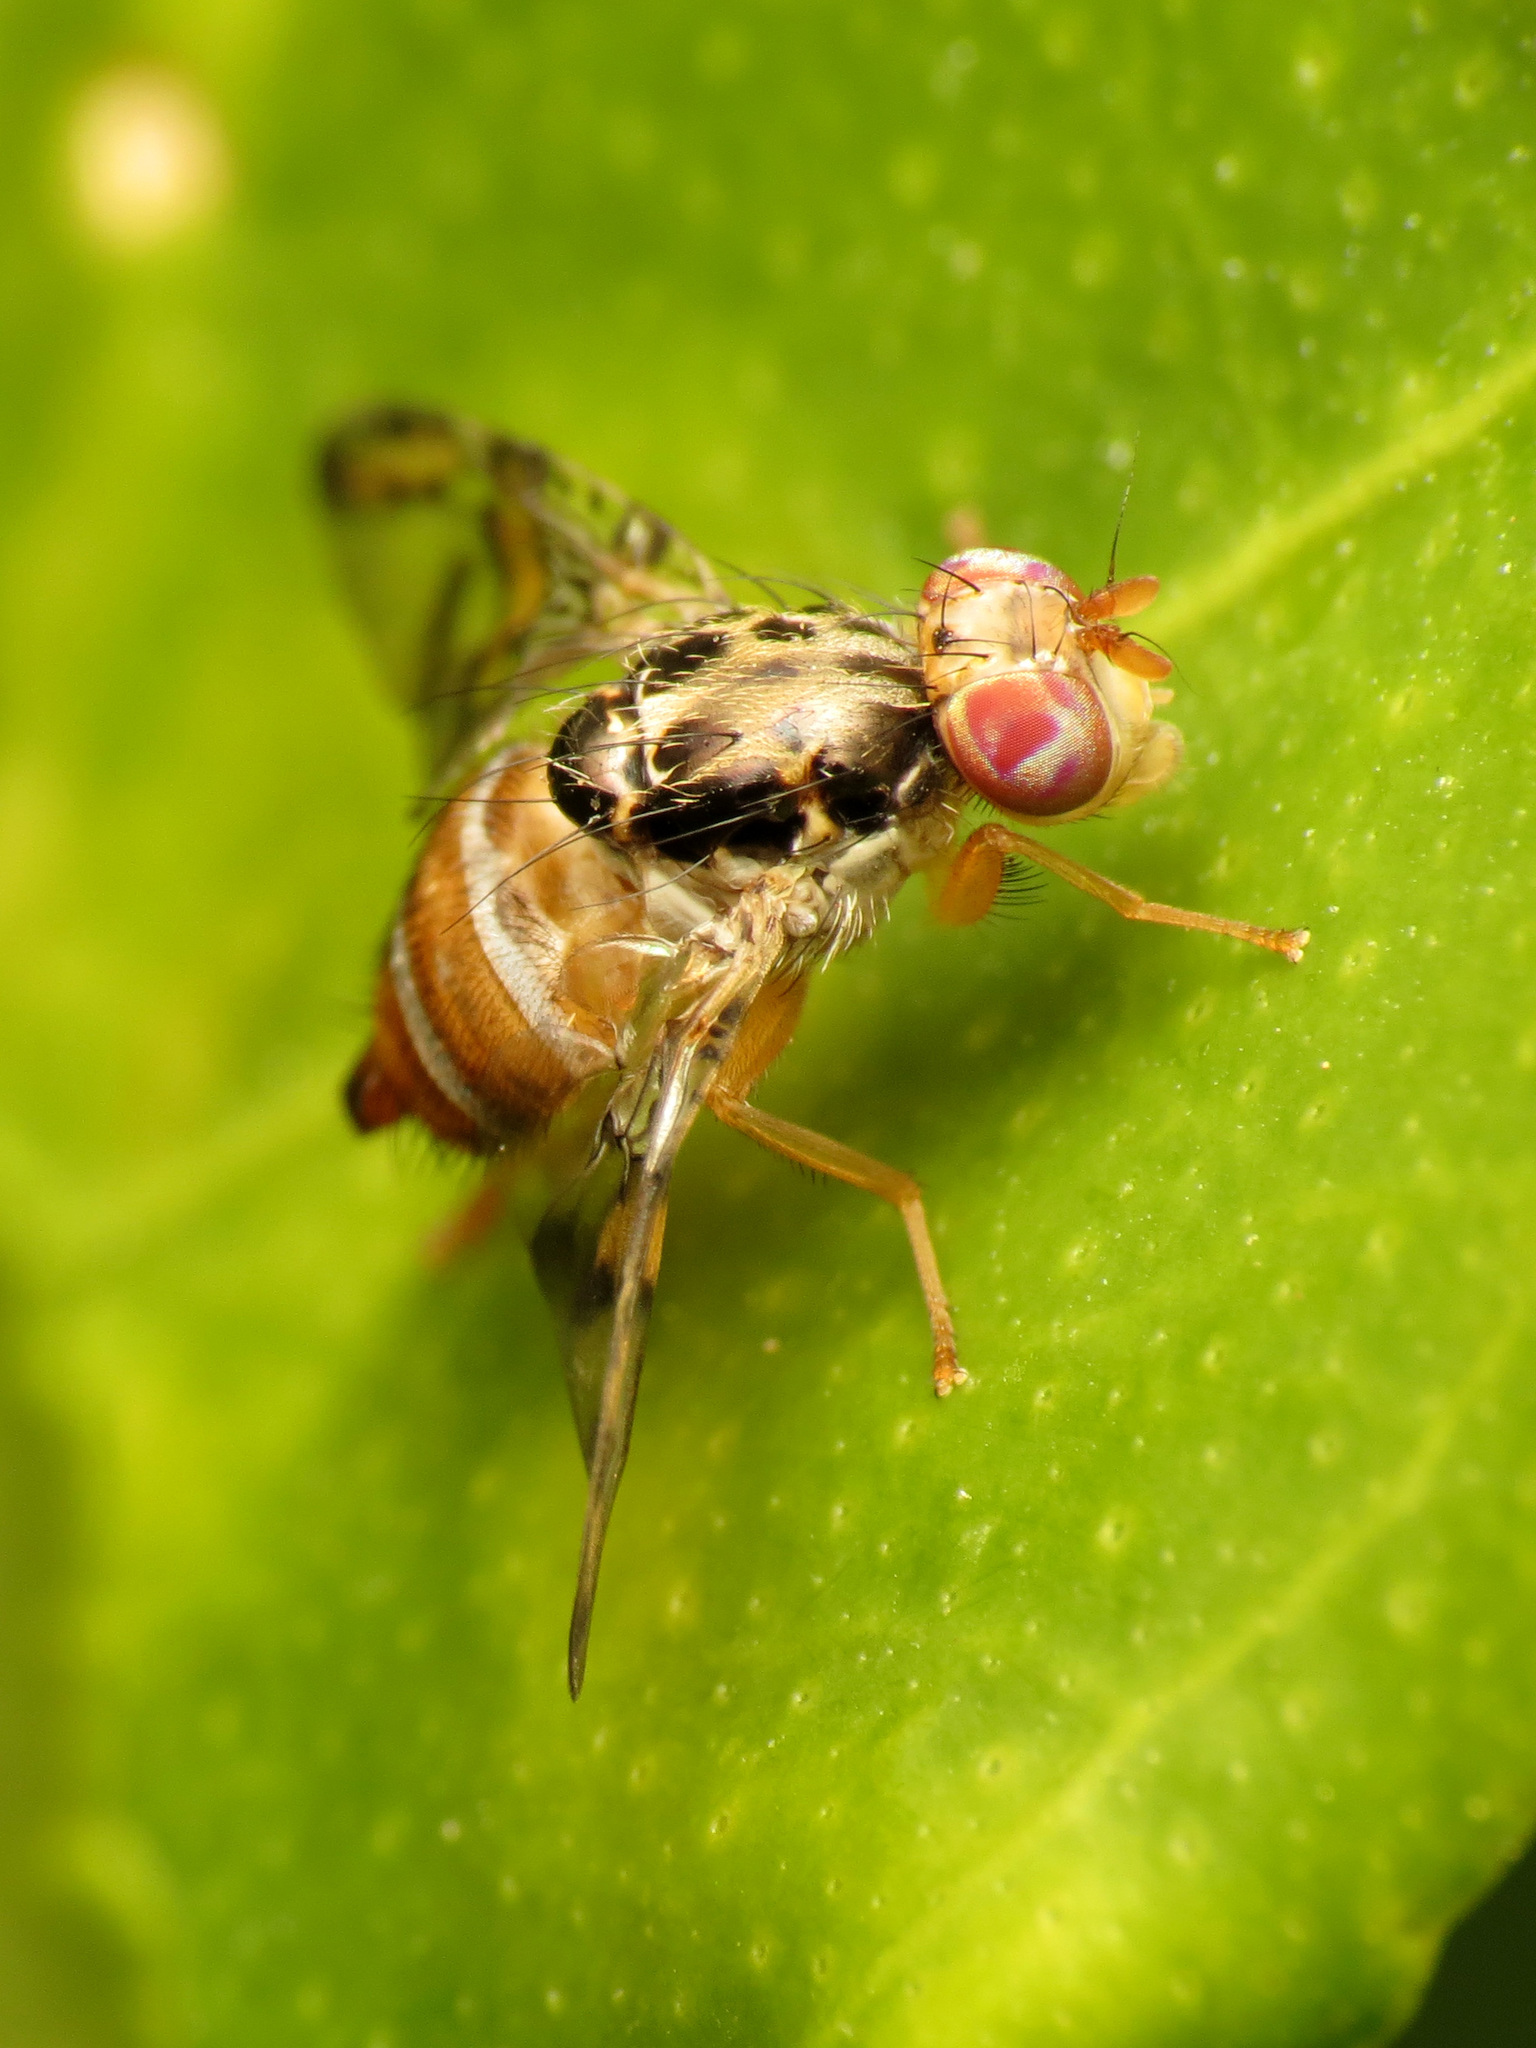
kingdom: Animalia
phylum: Arthropoda
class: Insecta
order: Diptera
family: Tephritidae
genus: Ceratitis
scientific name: Ceratitis capitata
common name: Mediterranean fruit fly
